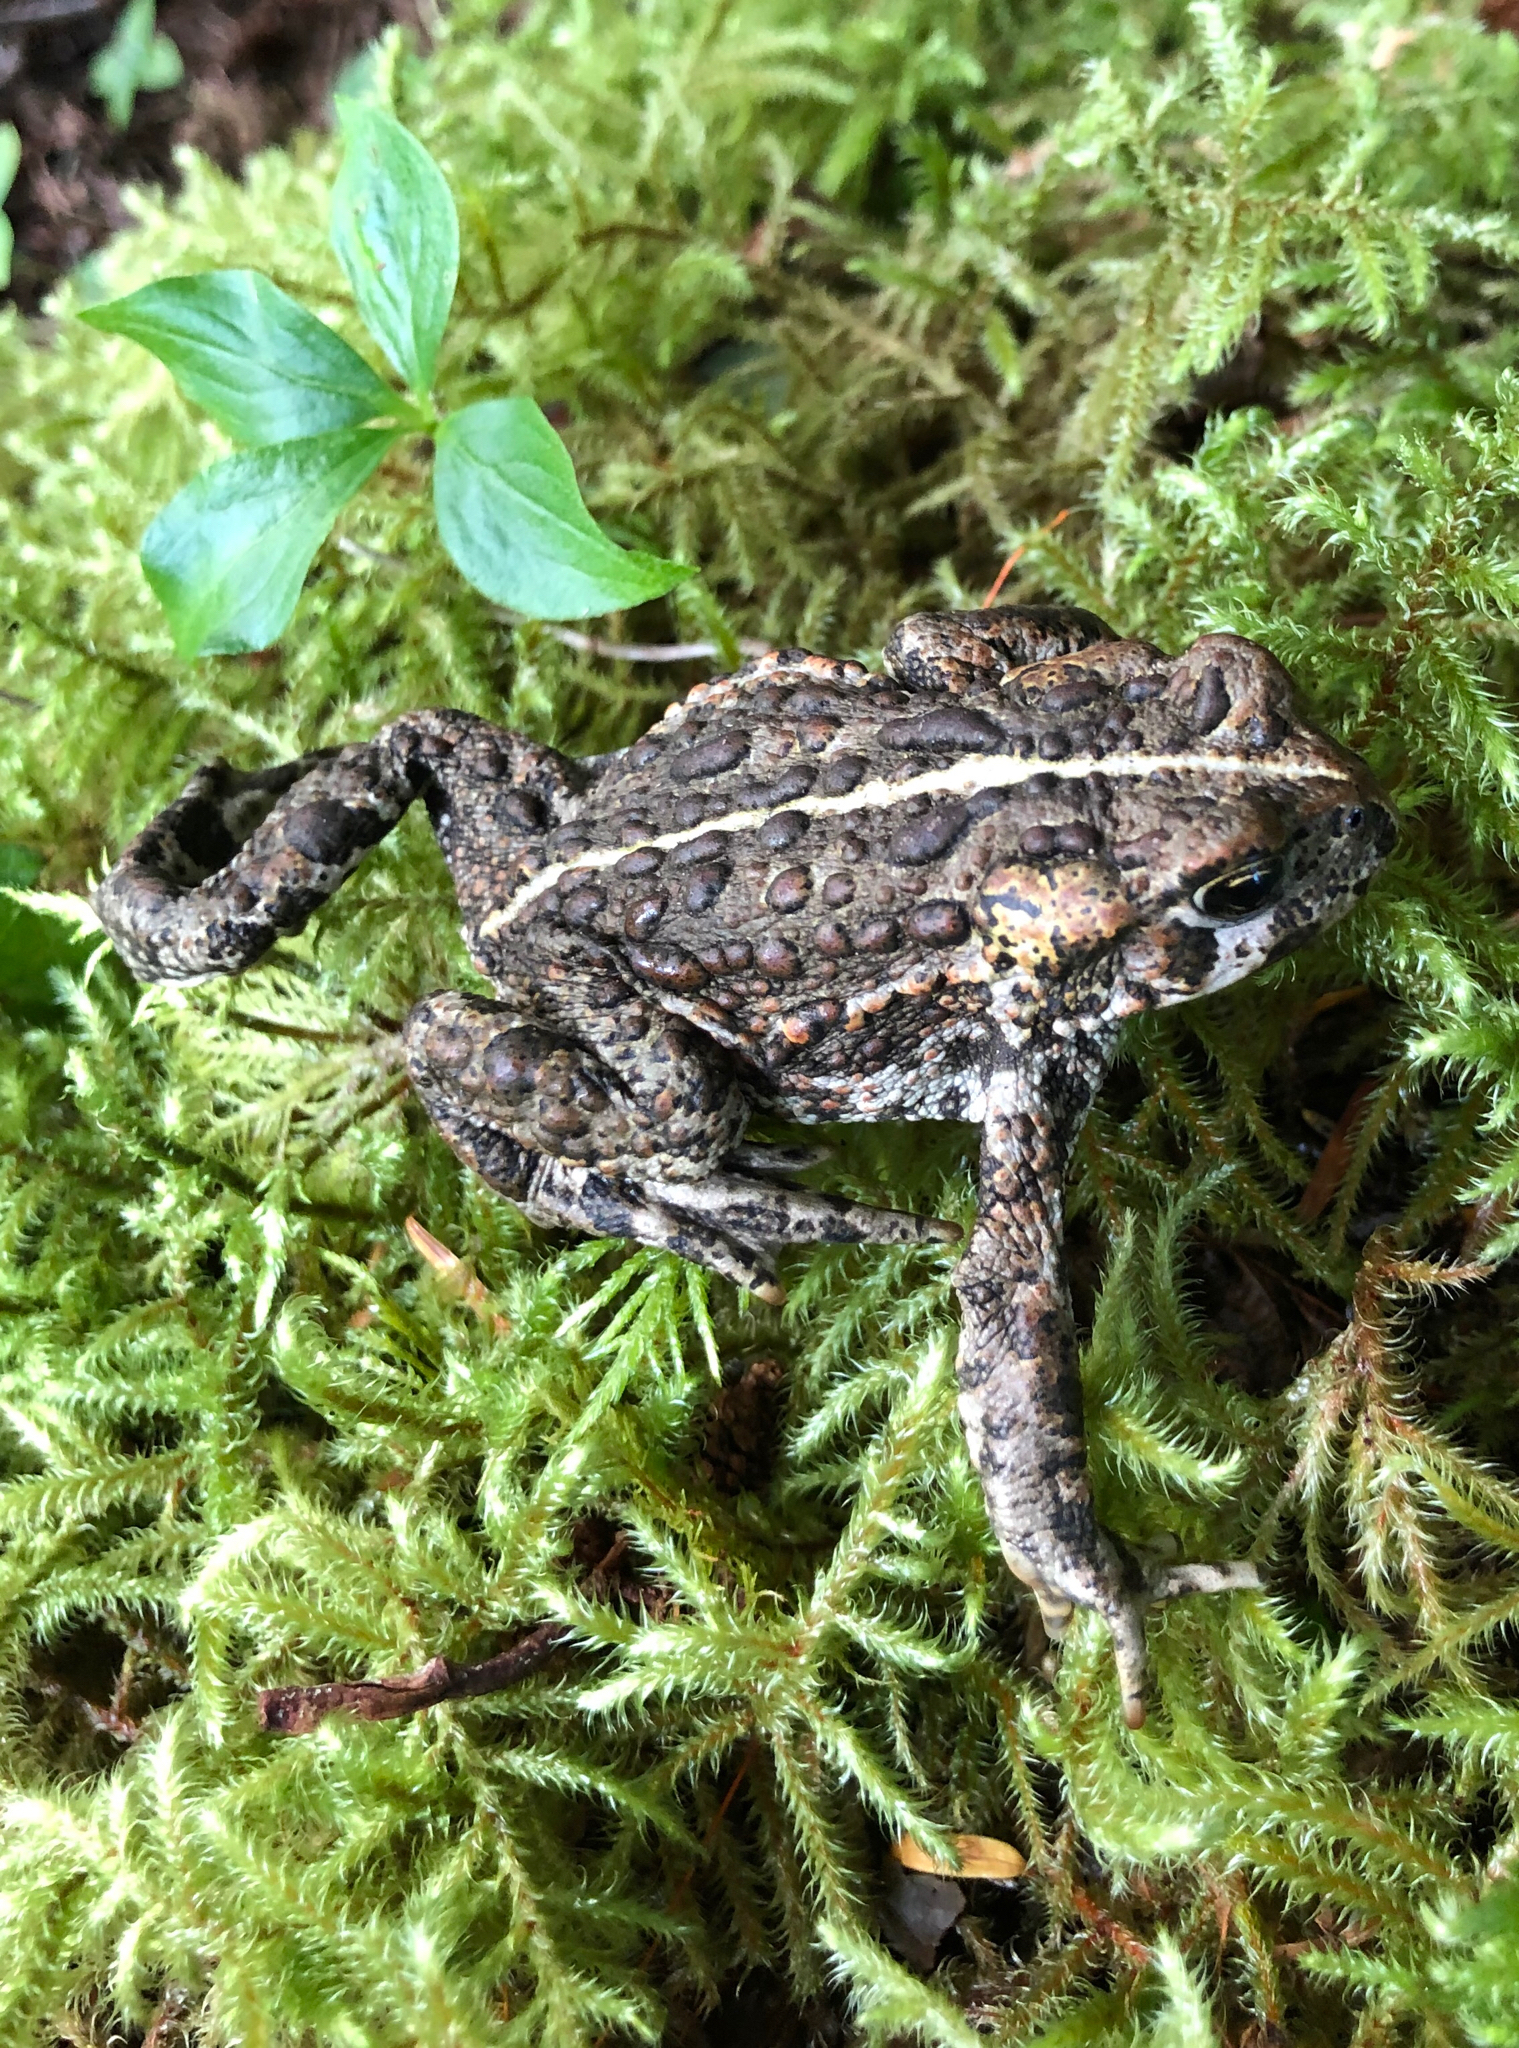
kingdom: Animalia
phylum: Chordata
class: Amphibia
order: Anura
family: Bufonidae
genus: Anaxyrus
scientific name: Anaxyrus boreas
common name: Western toad
